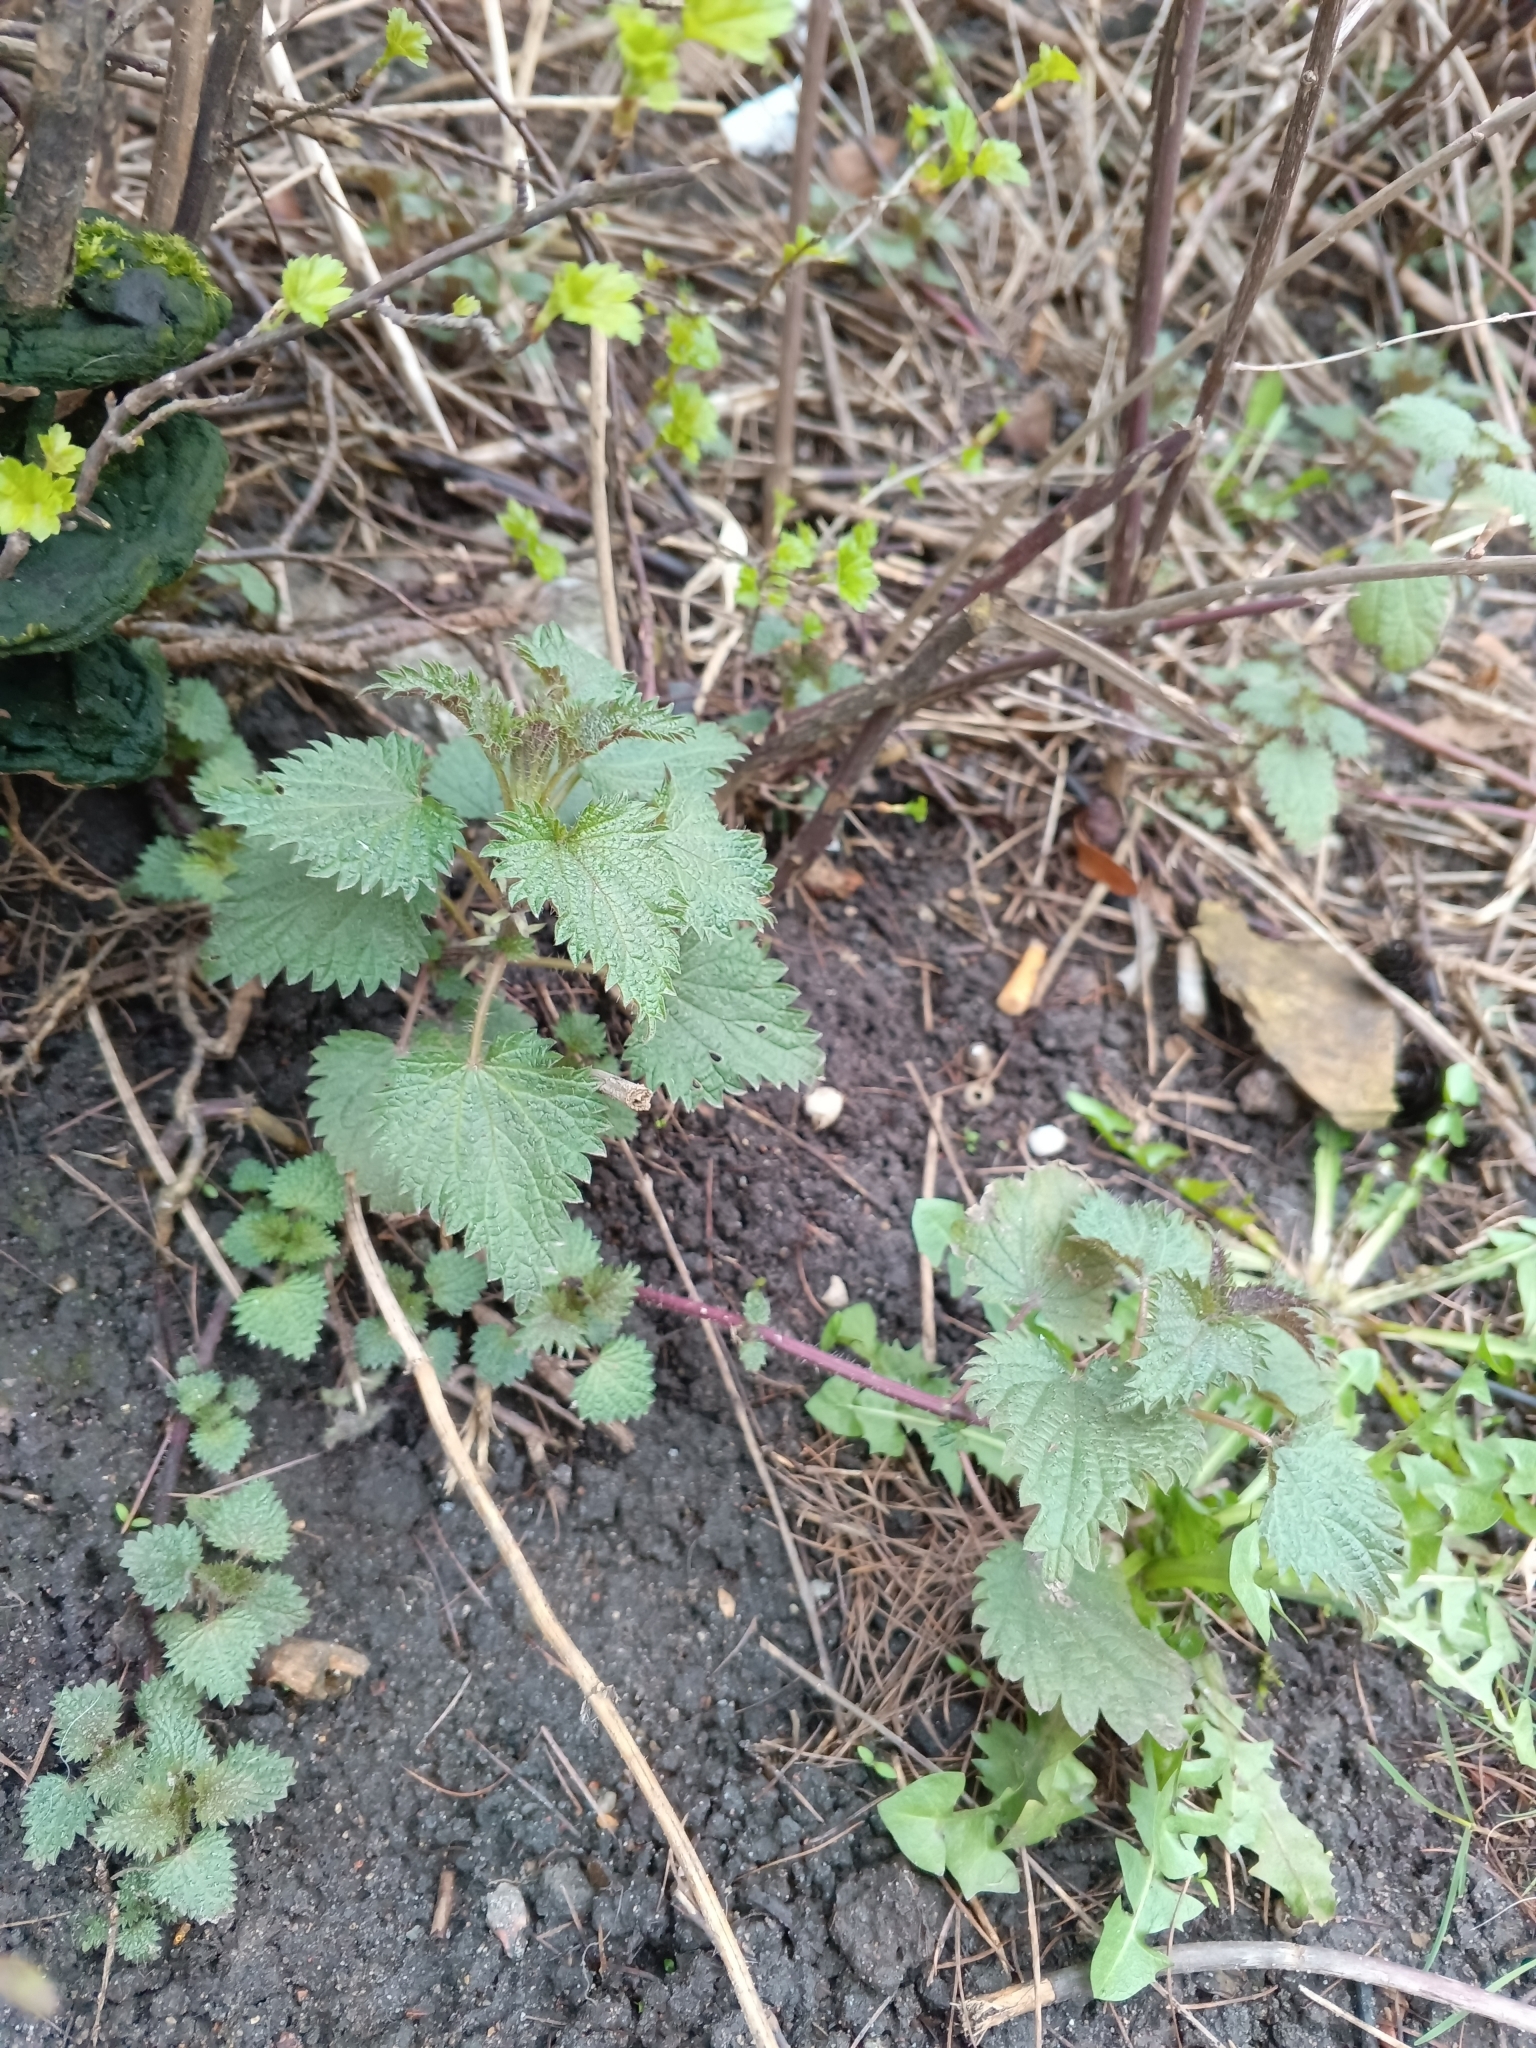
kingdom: Plantae
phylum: Tracheophyta
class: Magnoliopsida
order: Rosales
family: Urticaceae
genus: Urtica
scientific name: Urtica dioica
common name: Common nettle
